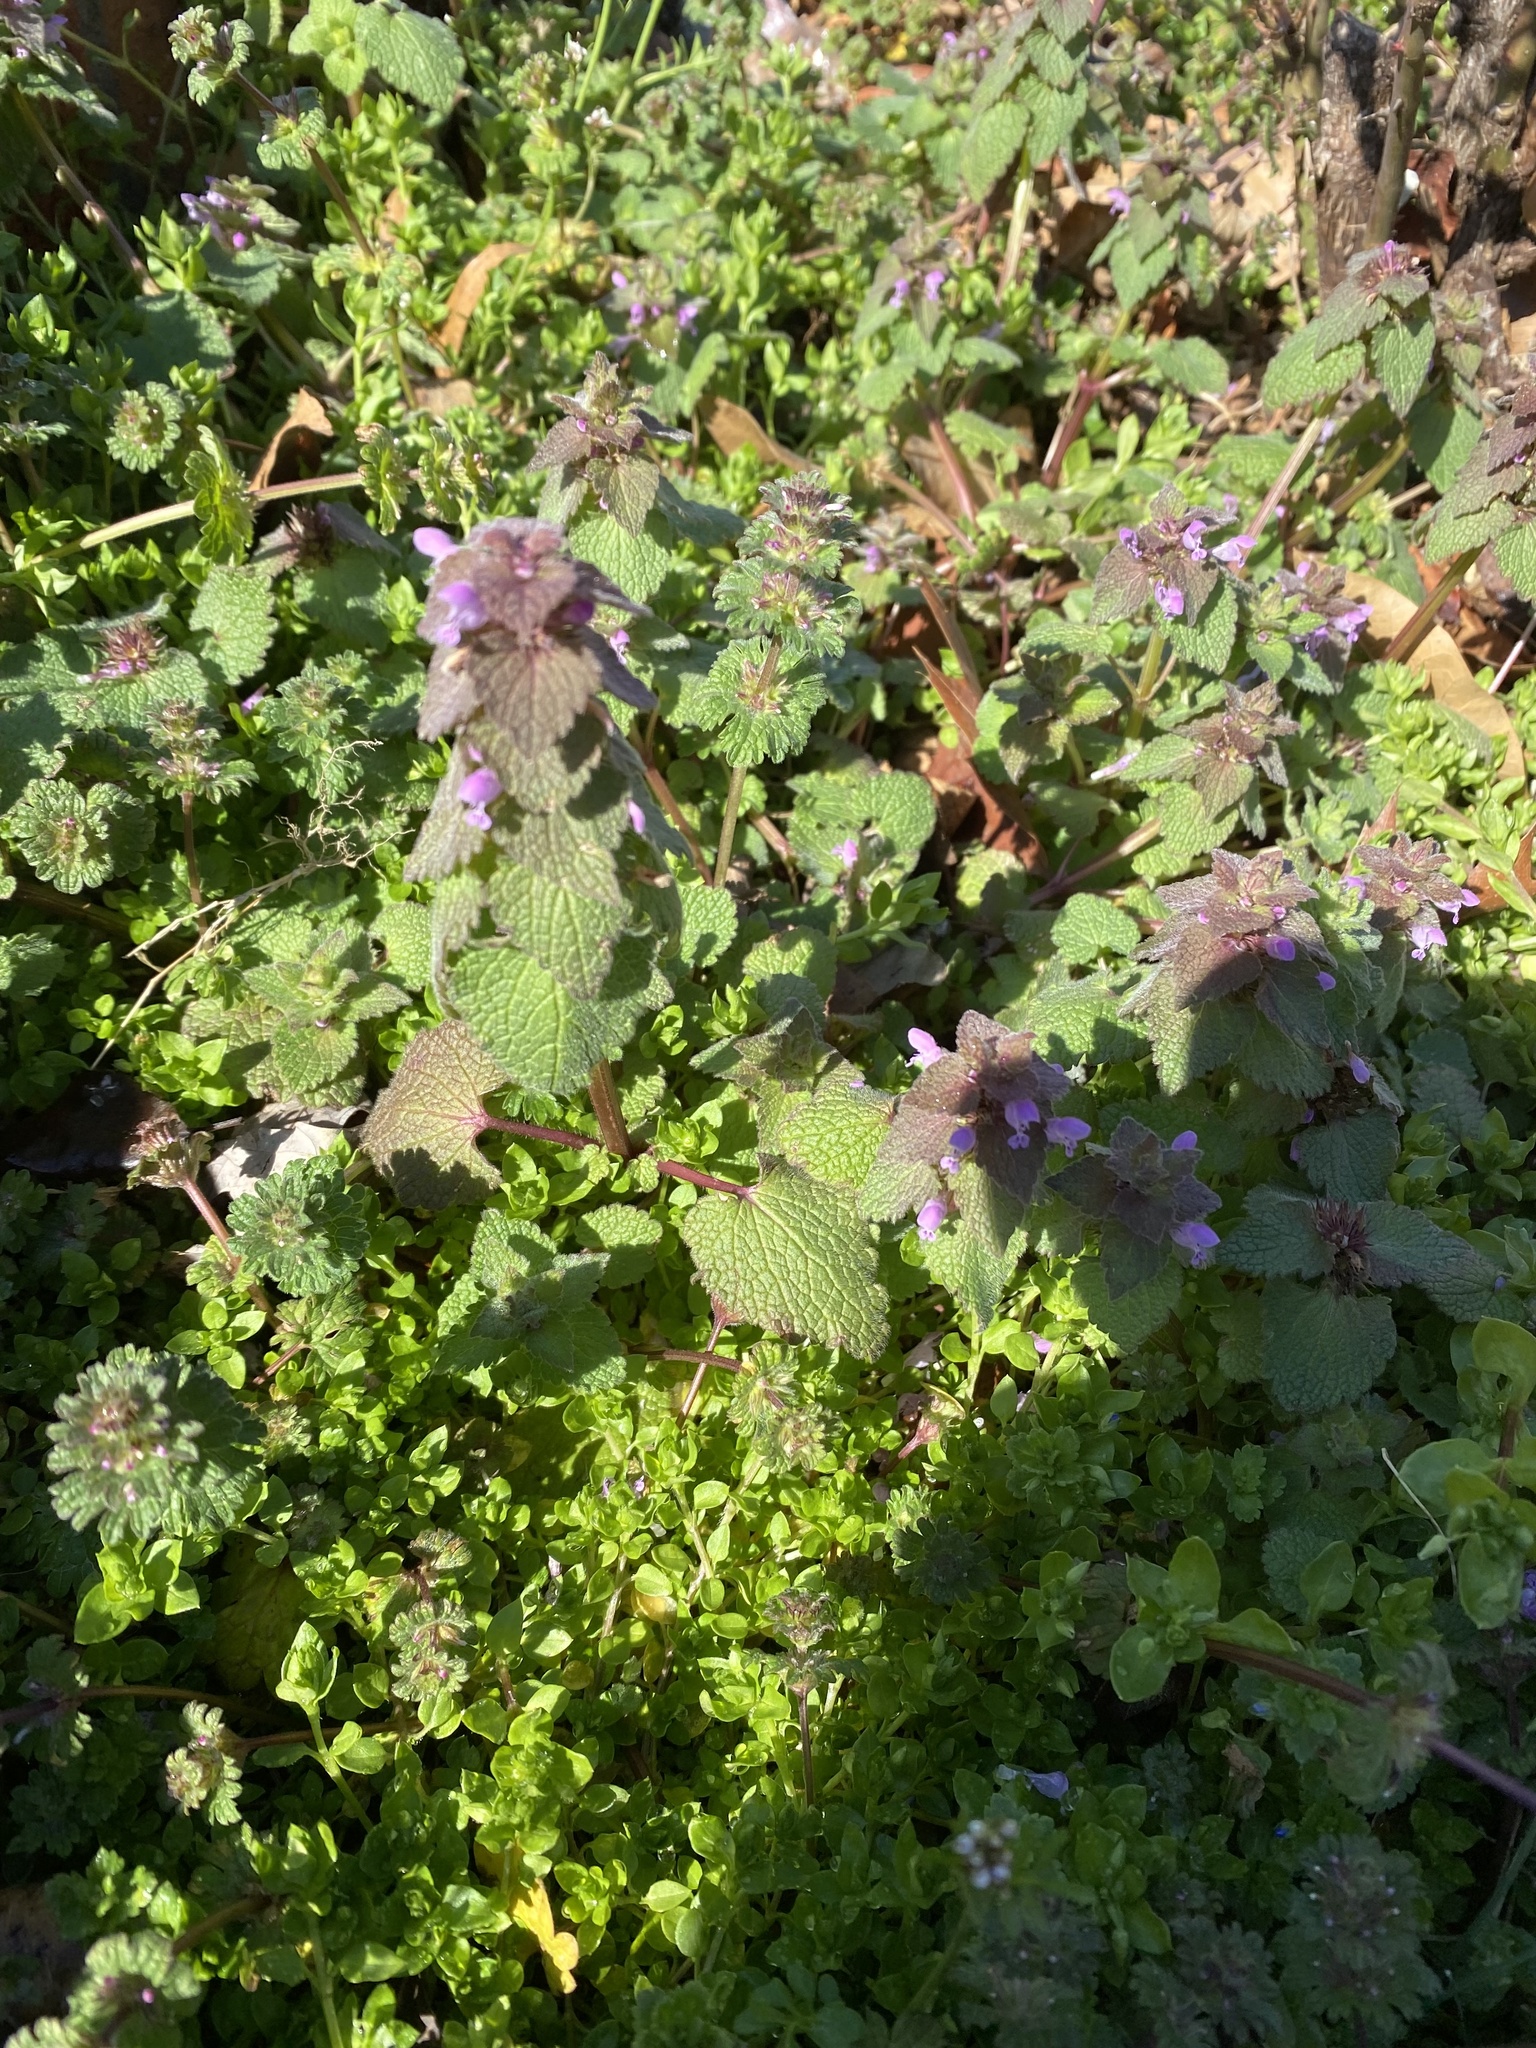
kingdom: Plantae
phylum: Tracheophyta
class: Magnoliopsida
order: Lamiales
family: Lamiaceae
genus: Lamium
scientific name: Lamium purpureum
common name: Red dead-nettle
